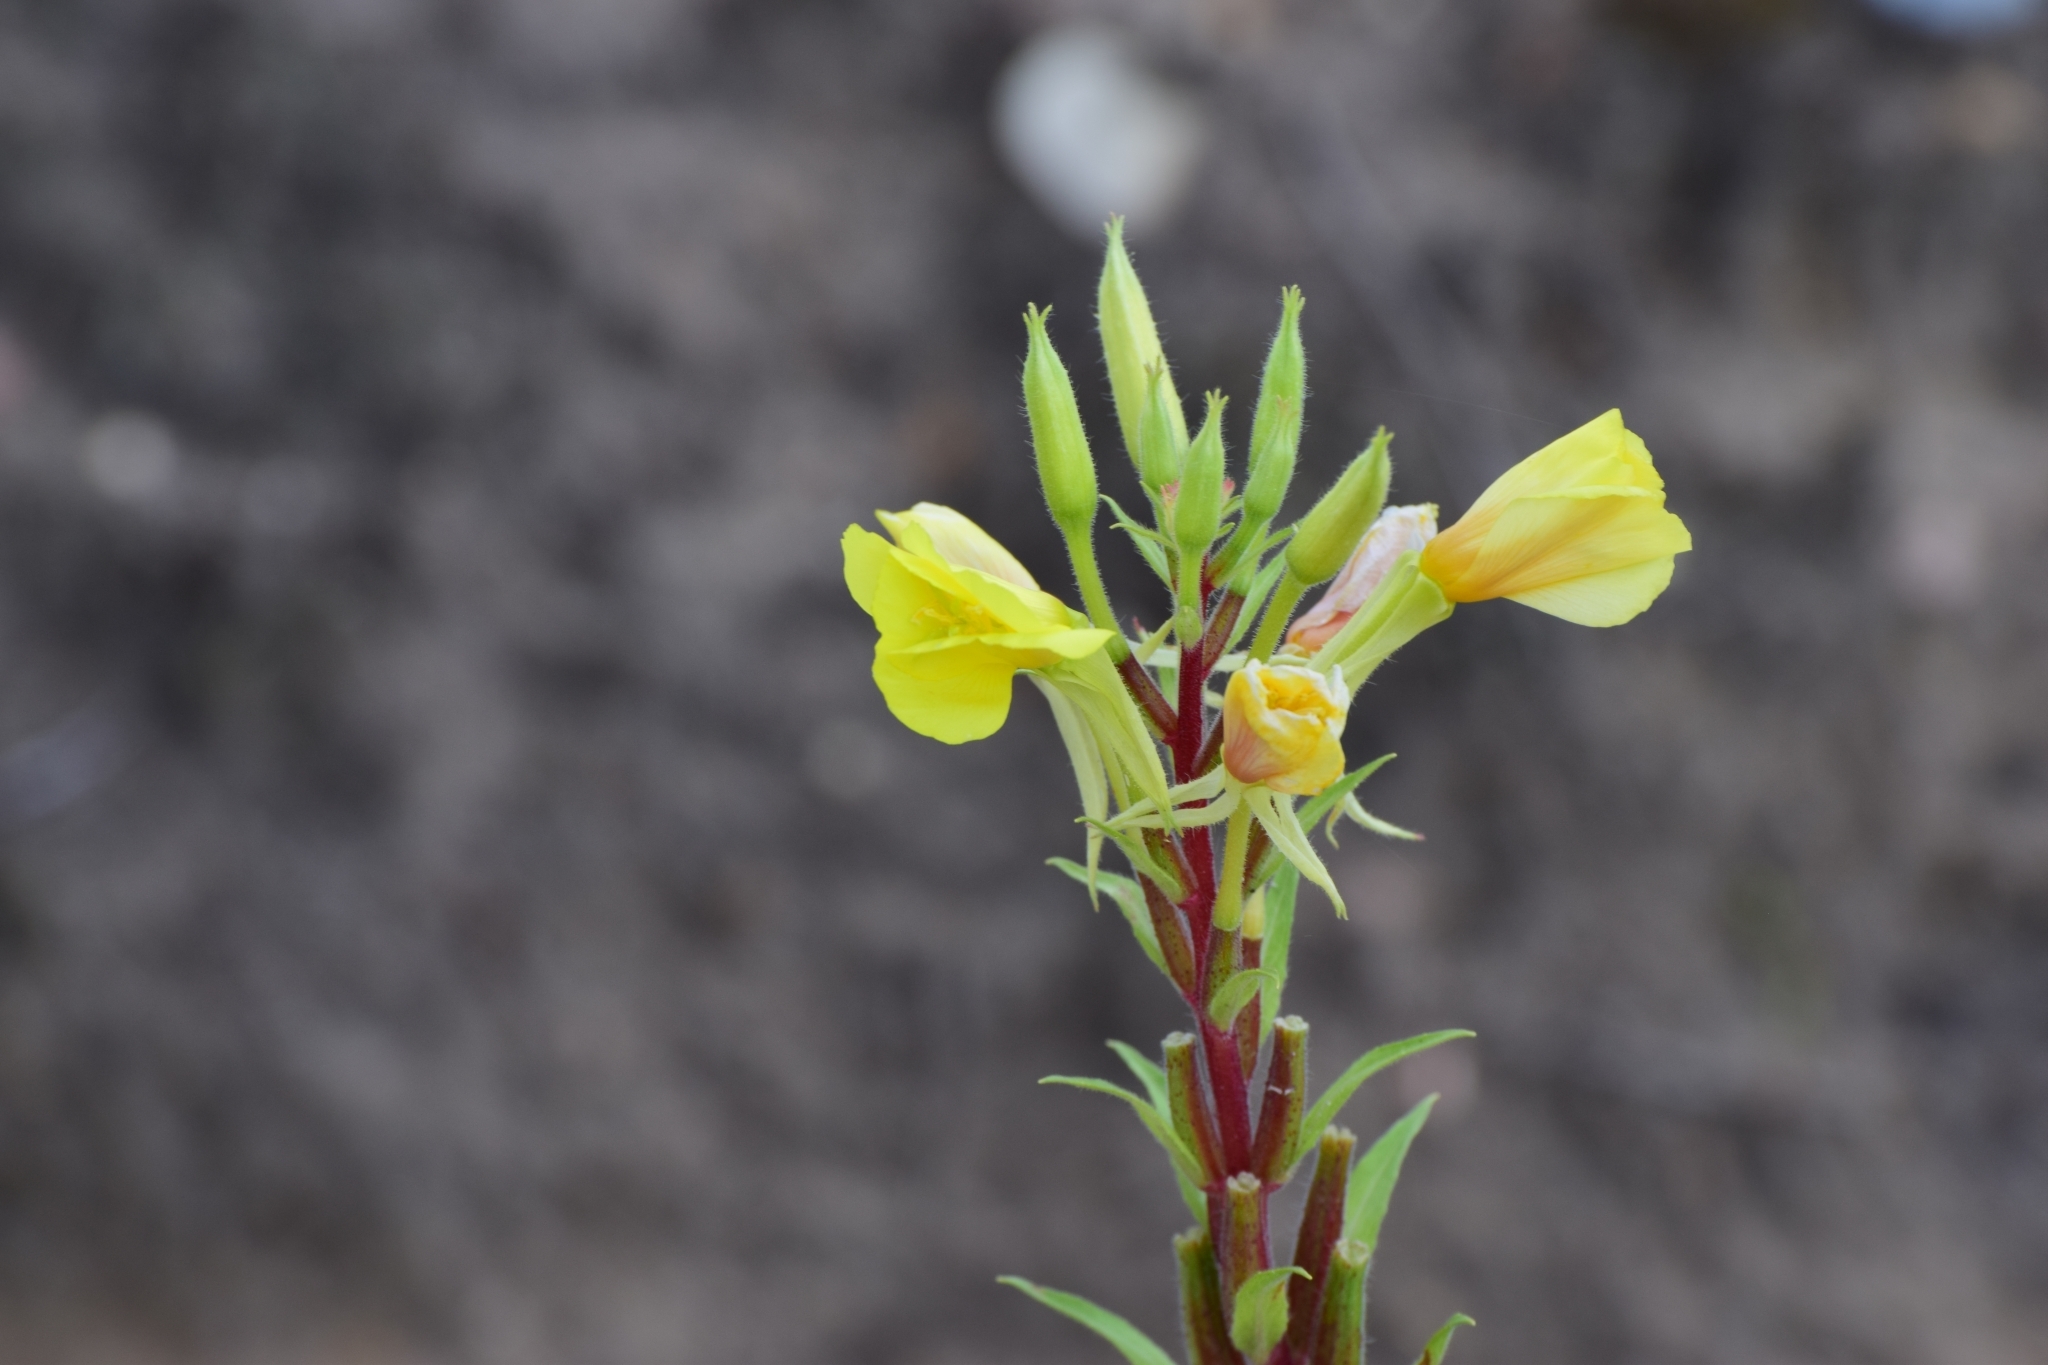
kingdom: Plantae
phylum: Tracheophyta
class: Magnoliopsida
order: Myrtales
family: Onagraceae
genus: Oenothera
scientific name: Oenothera rubricaulis
